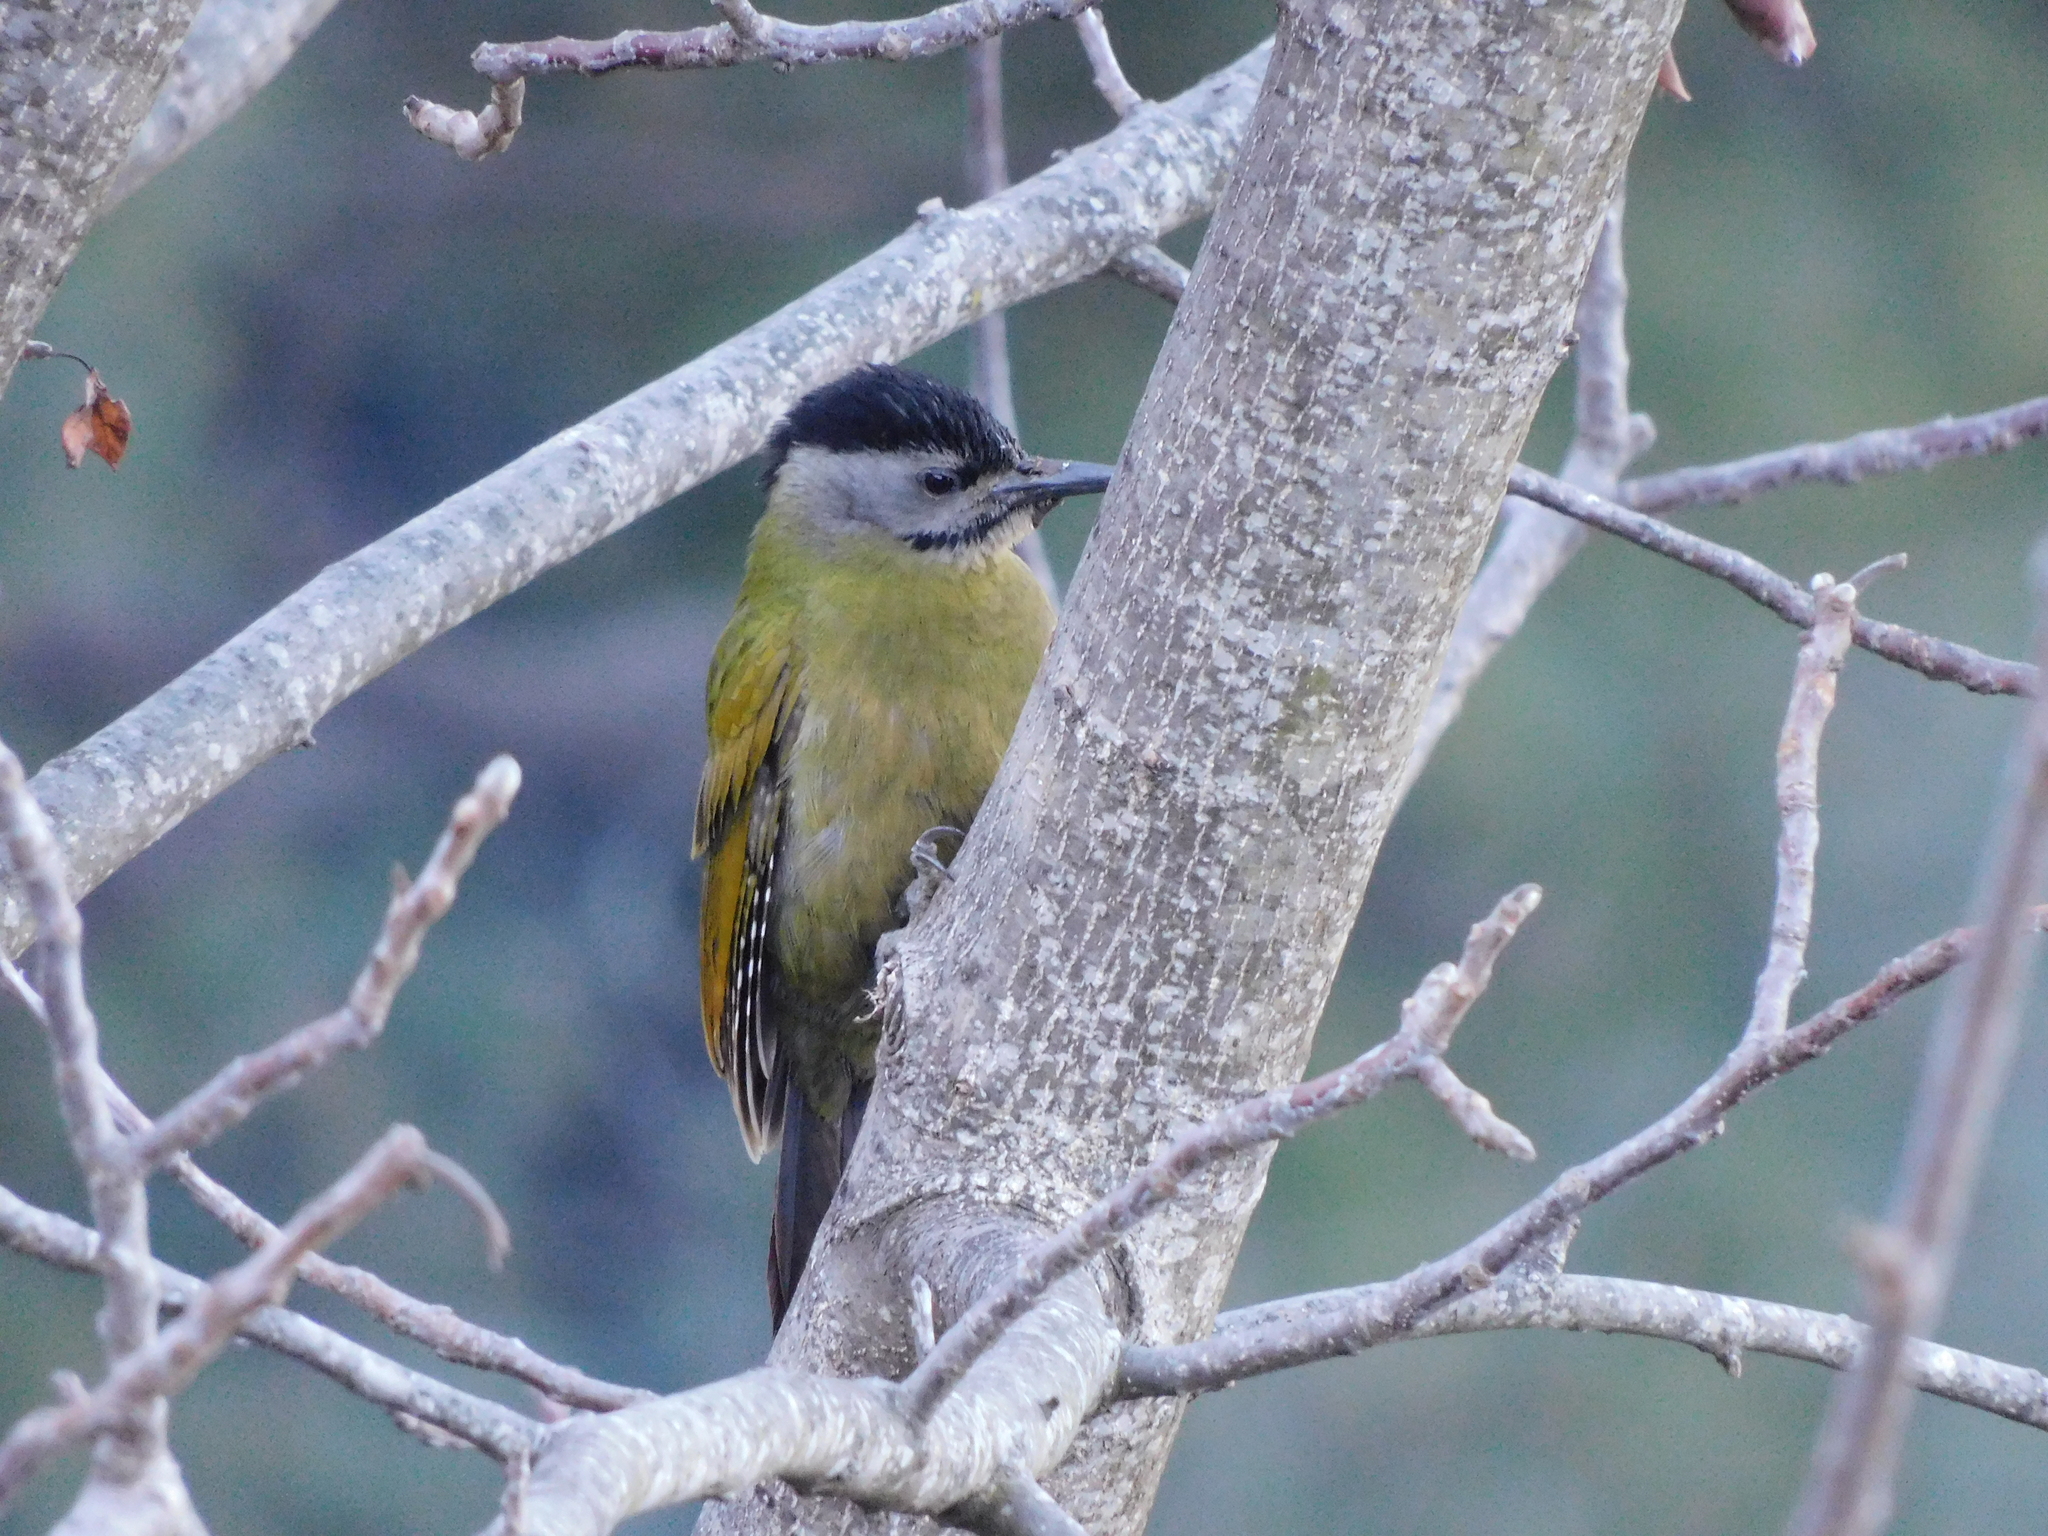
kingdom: Animalia
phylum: Chordata
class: Aves
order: Piciformes
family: Picidae
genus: Picus
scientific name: Picus canus
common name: Grey-headed woodpecker
